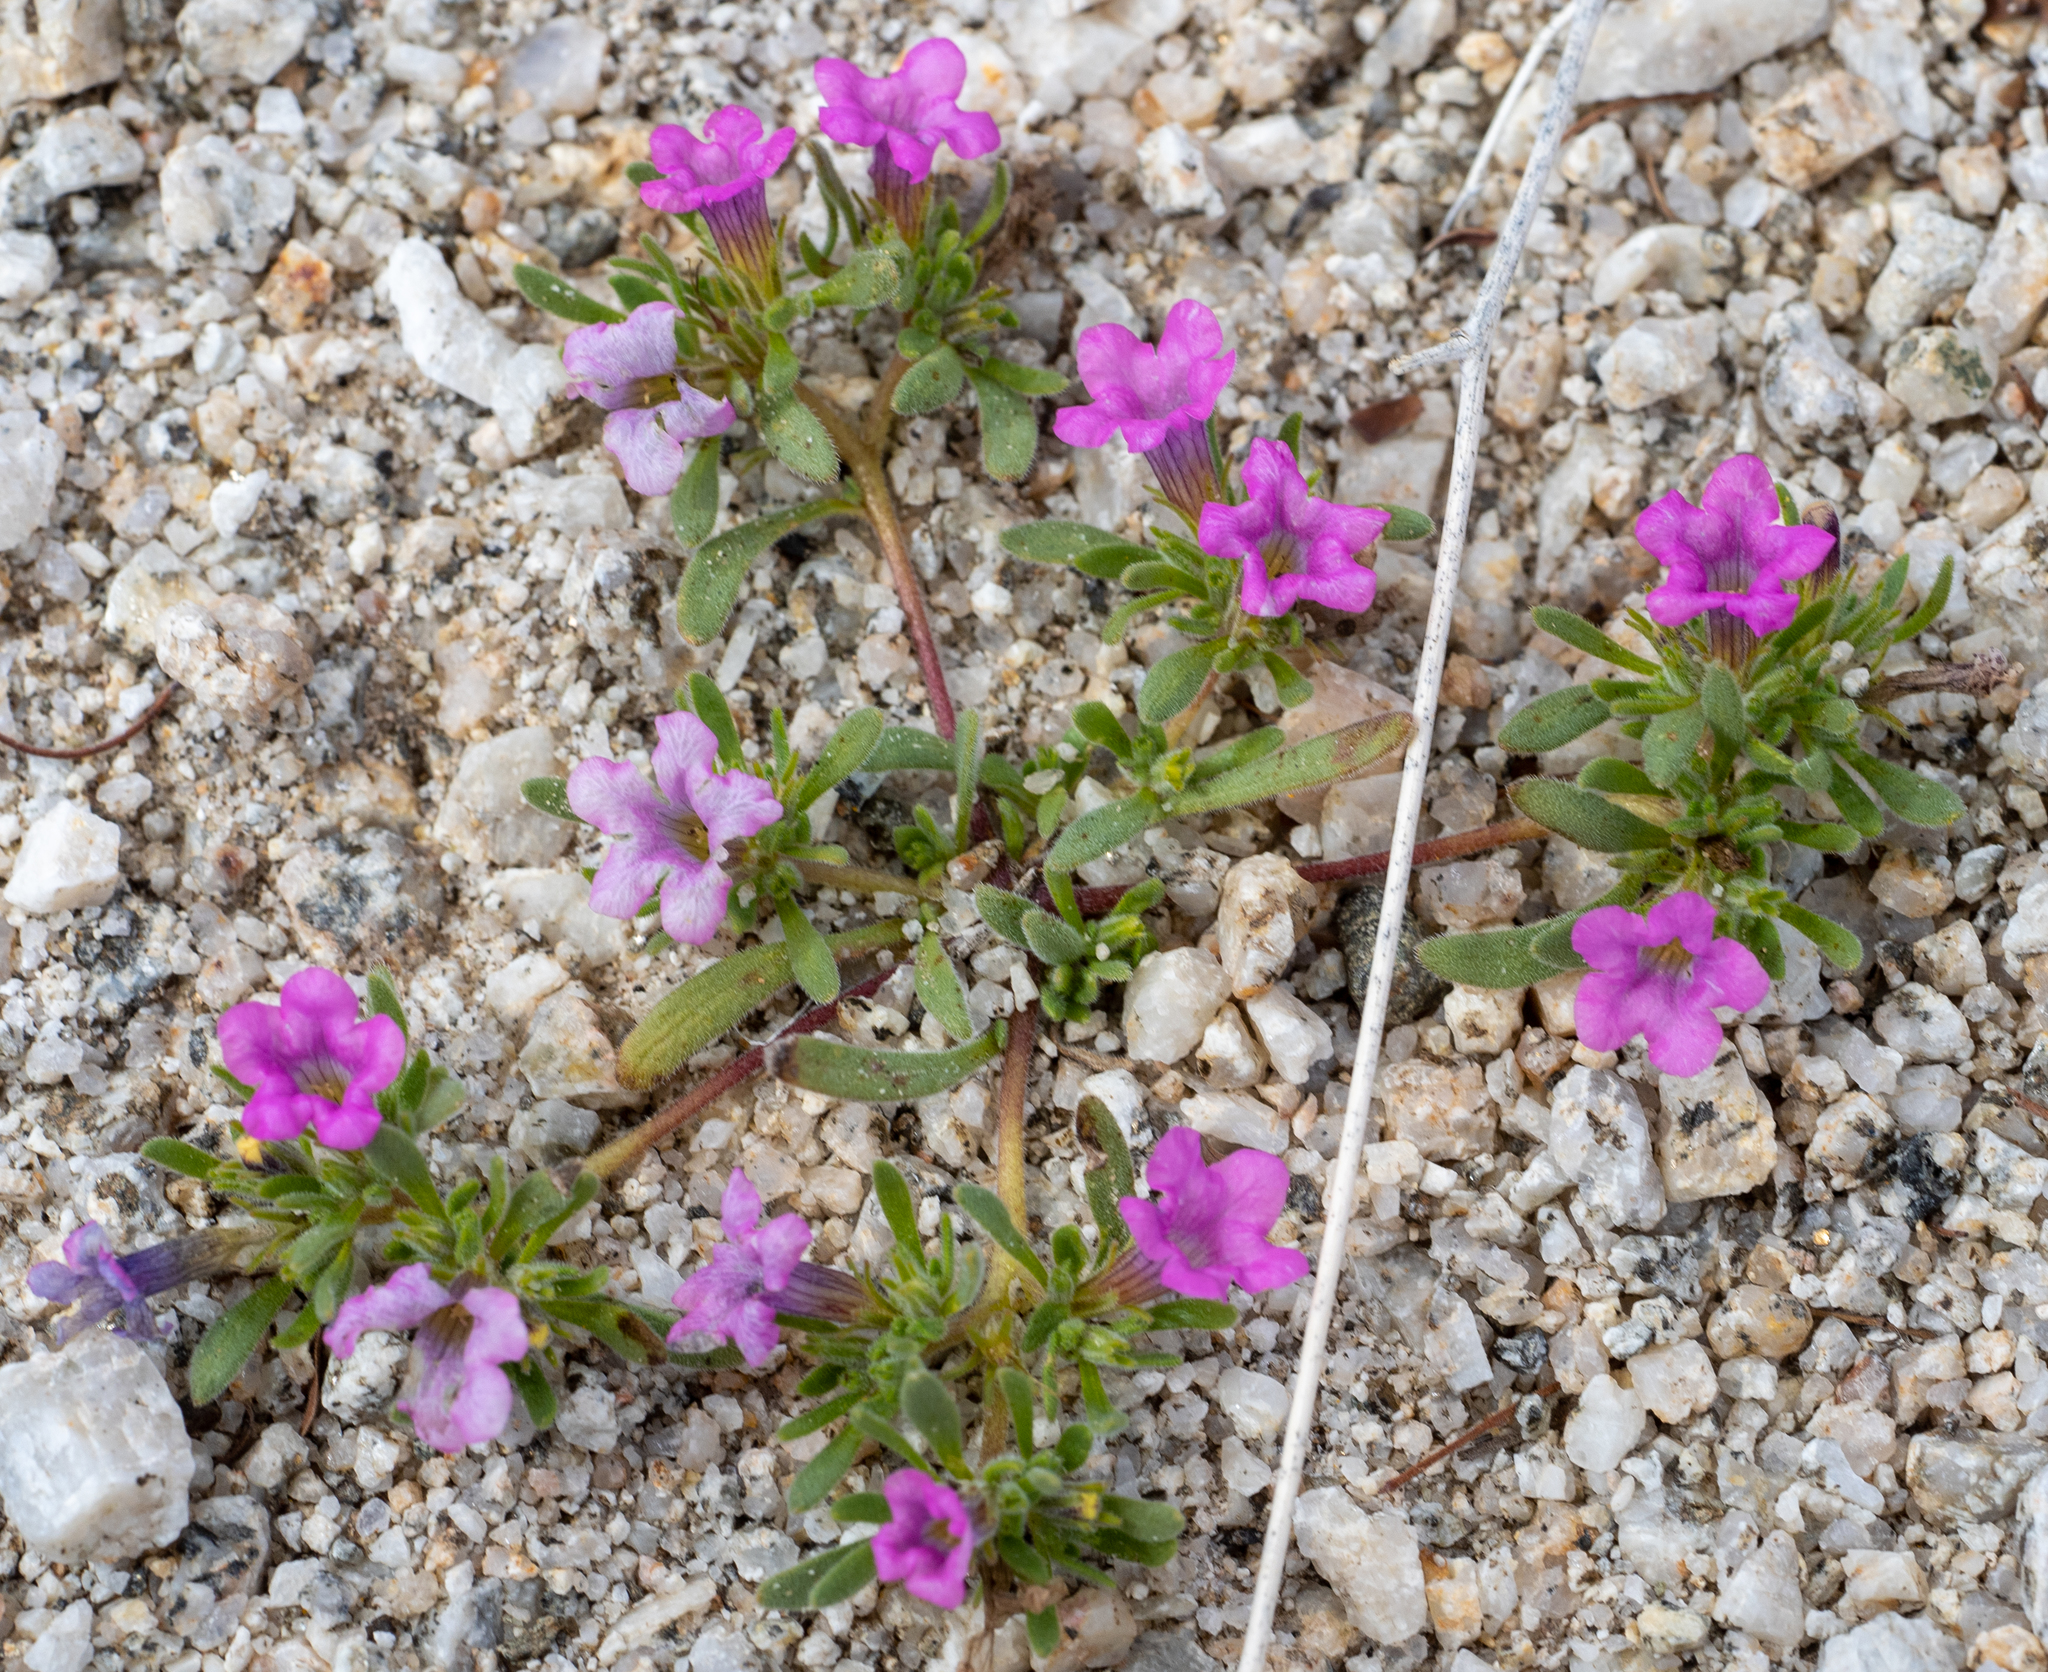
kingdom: Plantae
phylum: Tracheophyta
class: Magnoliopsida
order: Boraginales
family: Namaceae
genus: Nama
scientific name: Nama demissa
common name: Leafy nama
